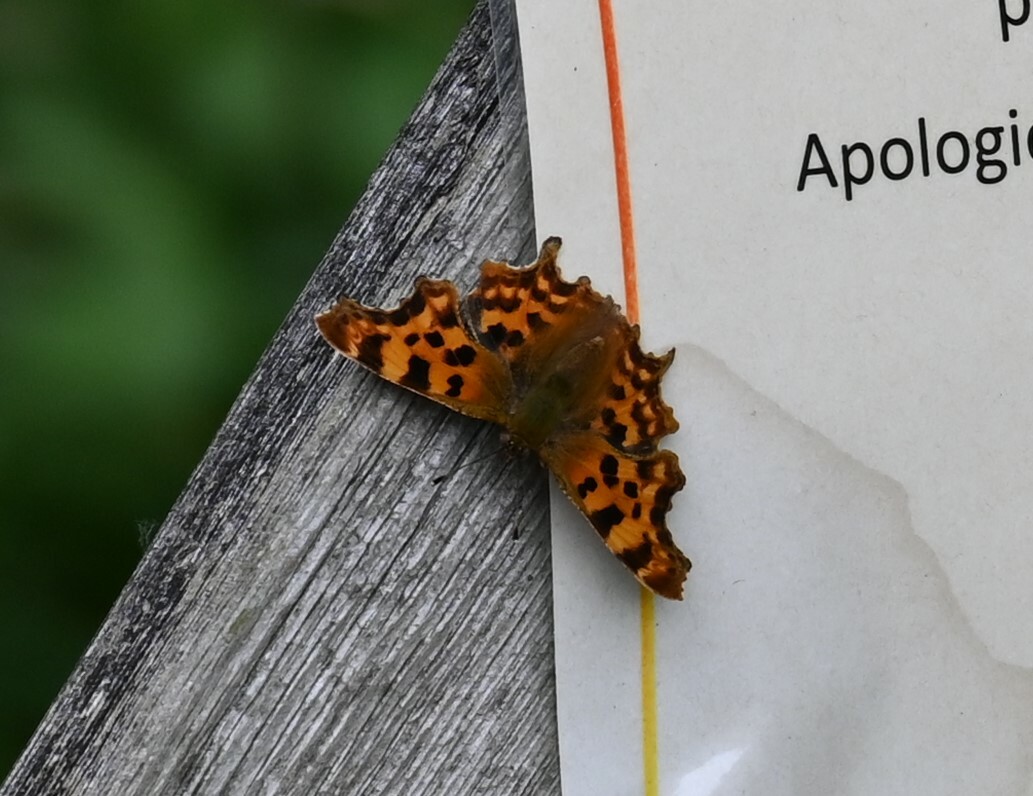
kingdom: Animalia
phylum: Arthropoda
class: Insecta
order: Lepidoptera
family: Nymphalidae
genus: Polygonia
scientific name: Polygonia c-album
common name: Comma
